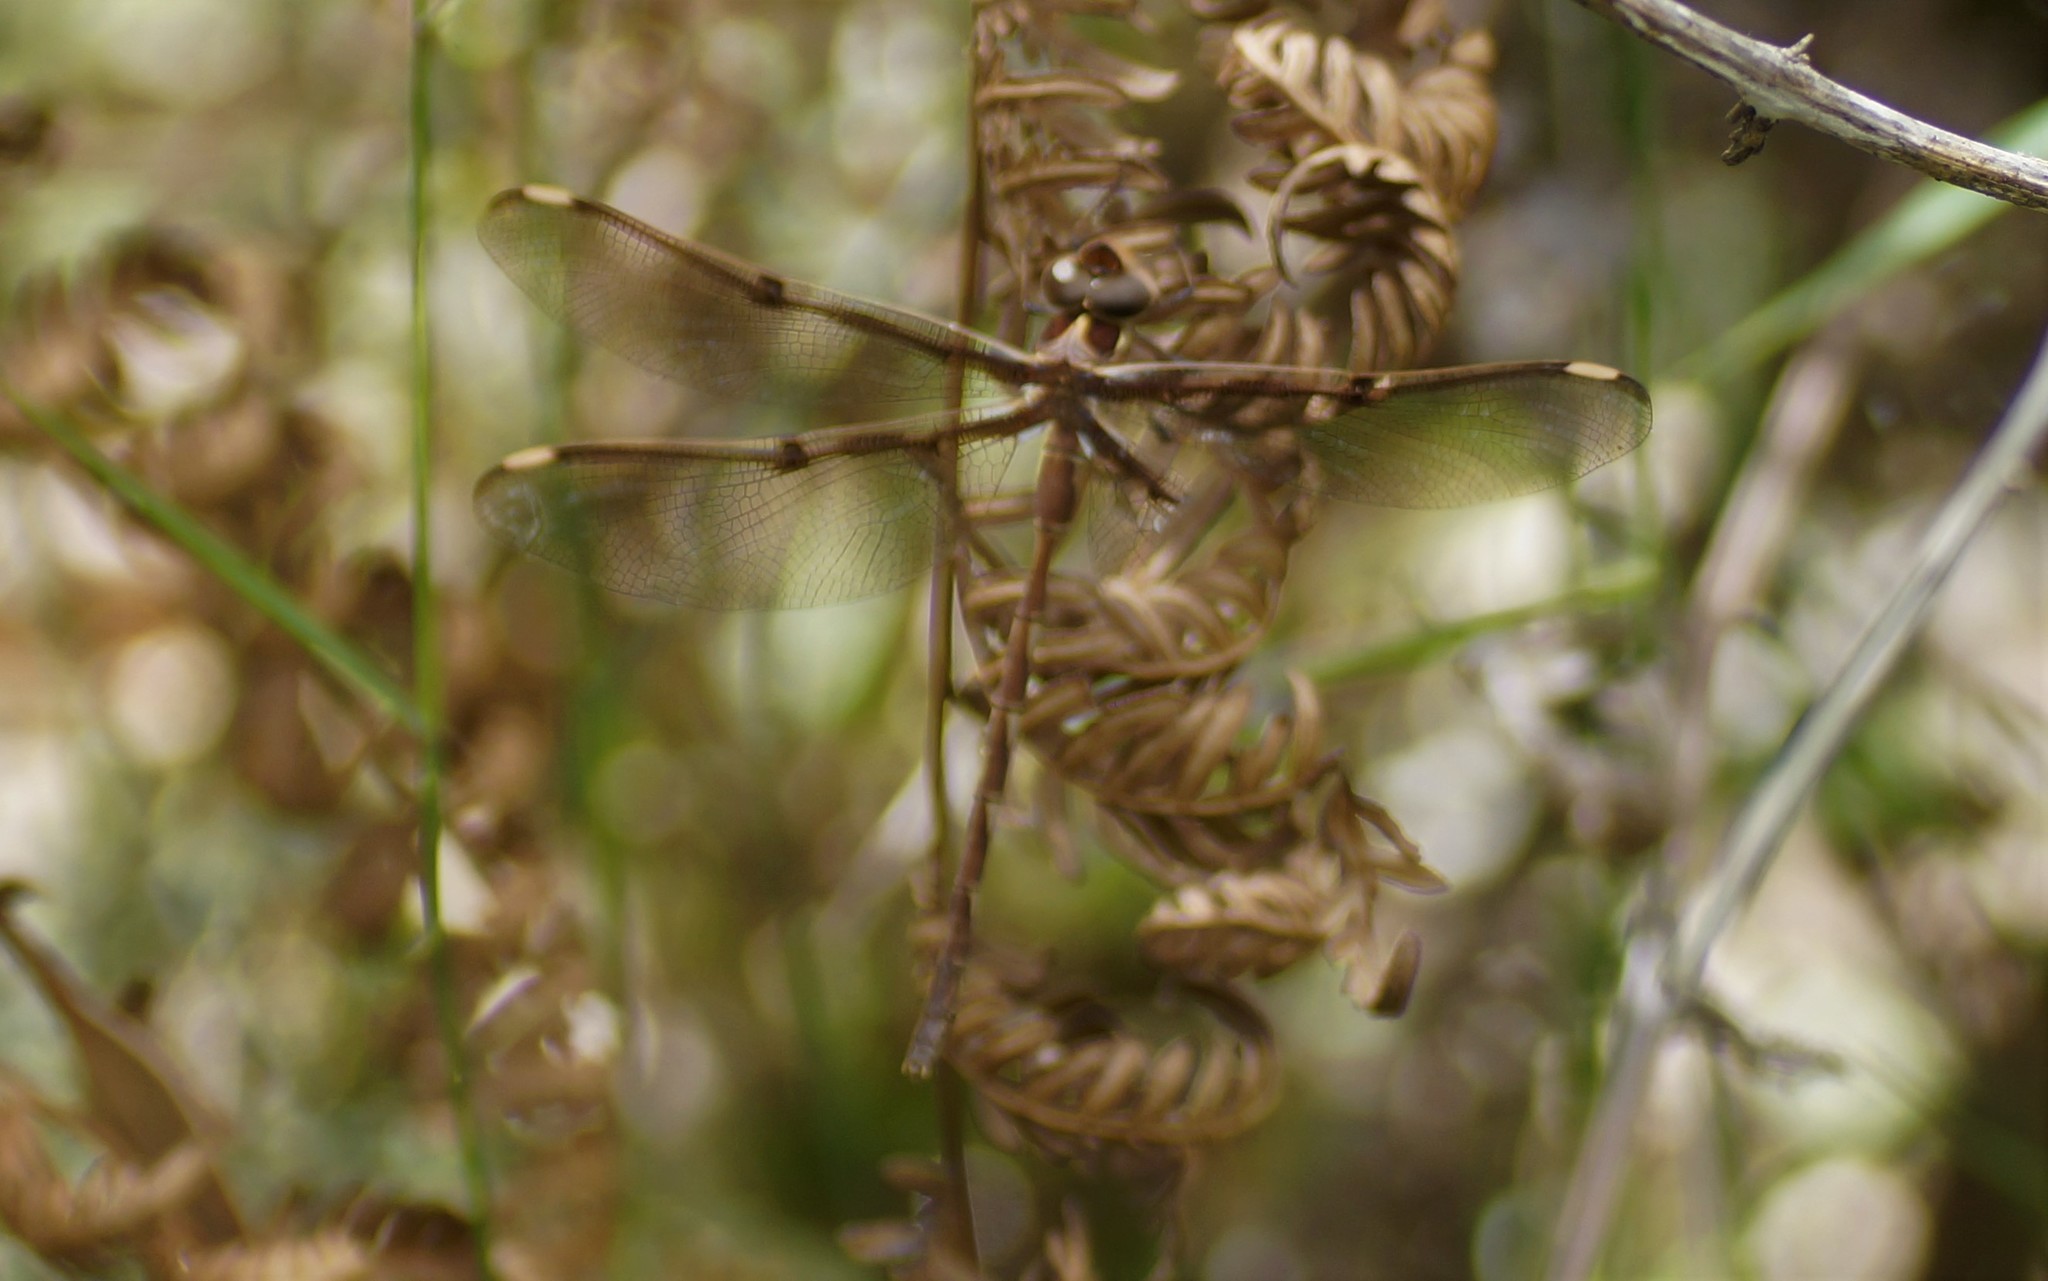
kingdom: Animalia
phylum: Arthropoda
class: Insecta
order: Odonata
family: Aeshnidae
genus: Telephlebia
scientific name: Telephlebia brevicauda
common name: Southern evening darner
